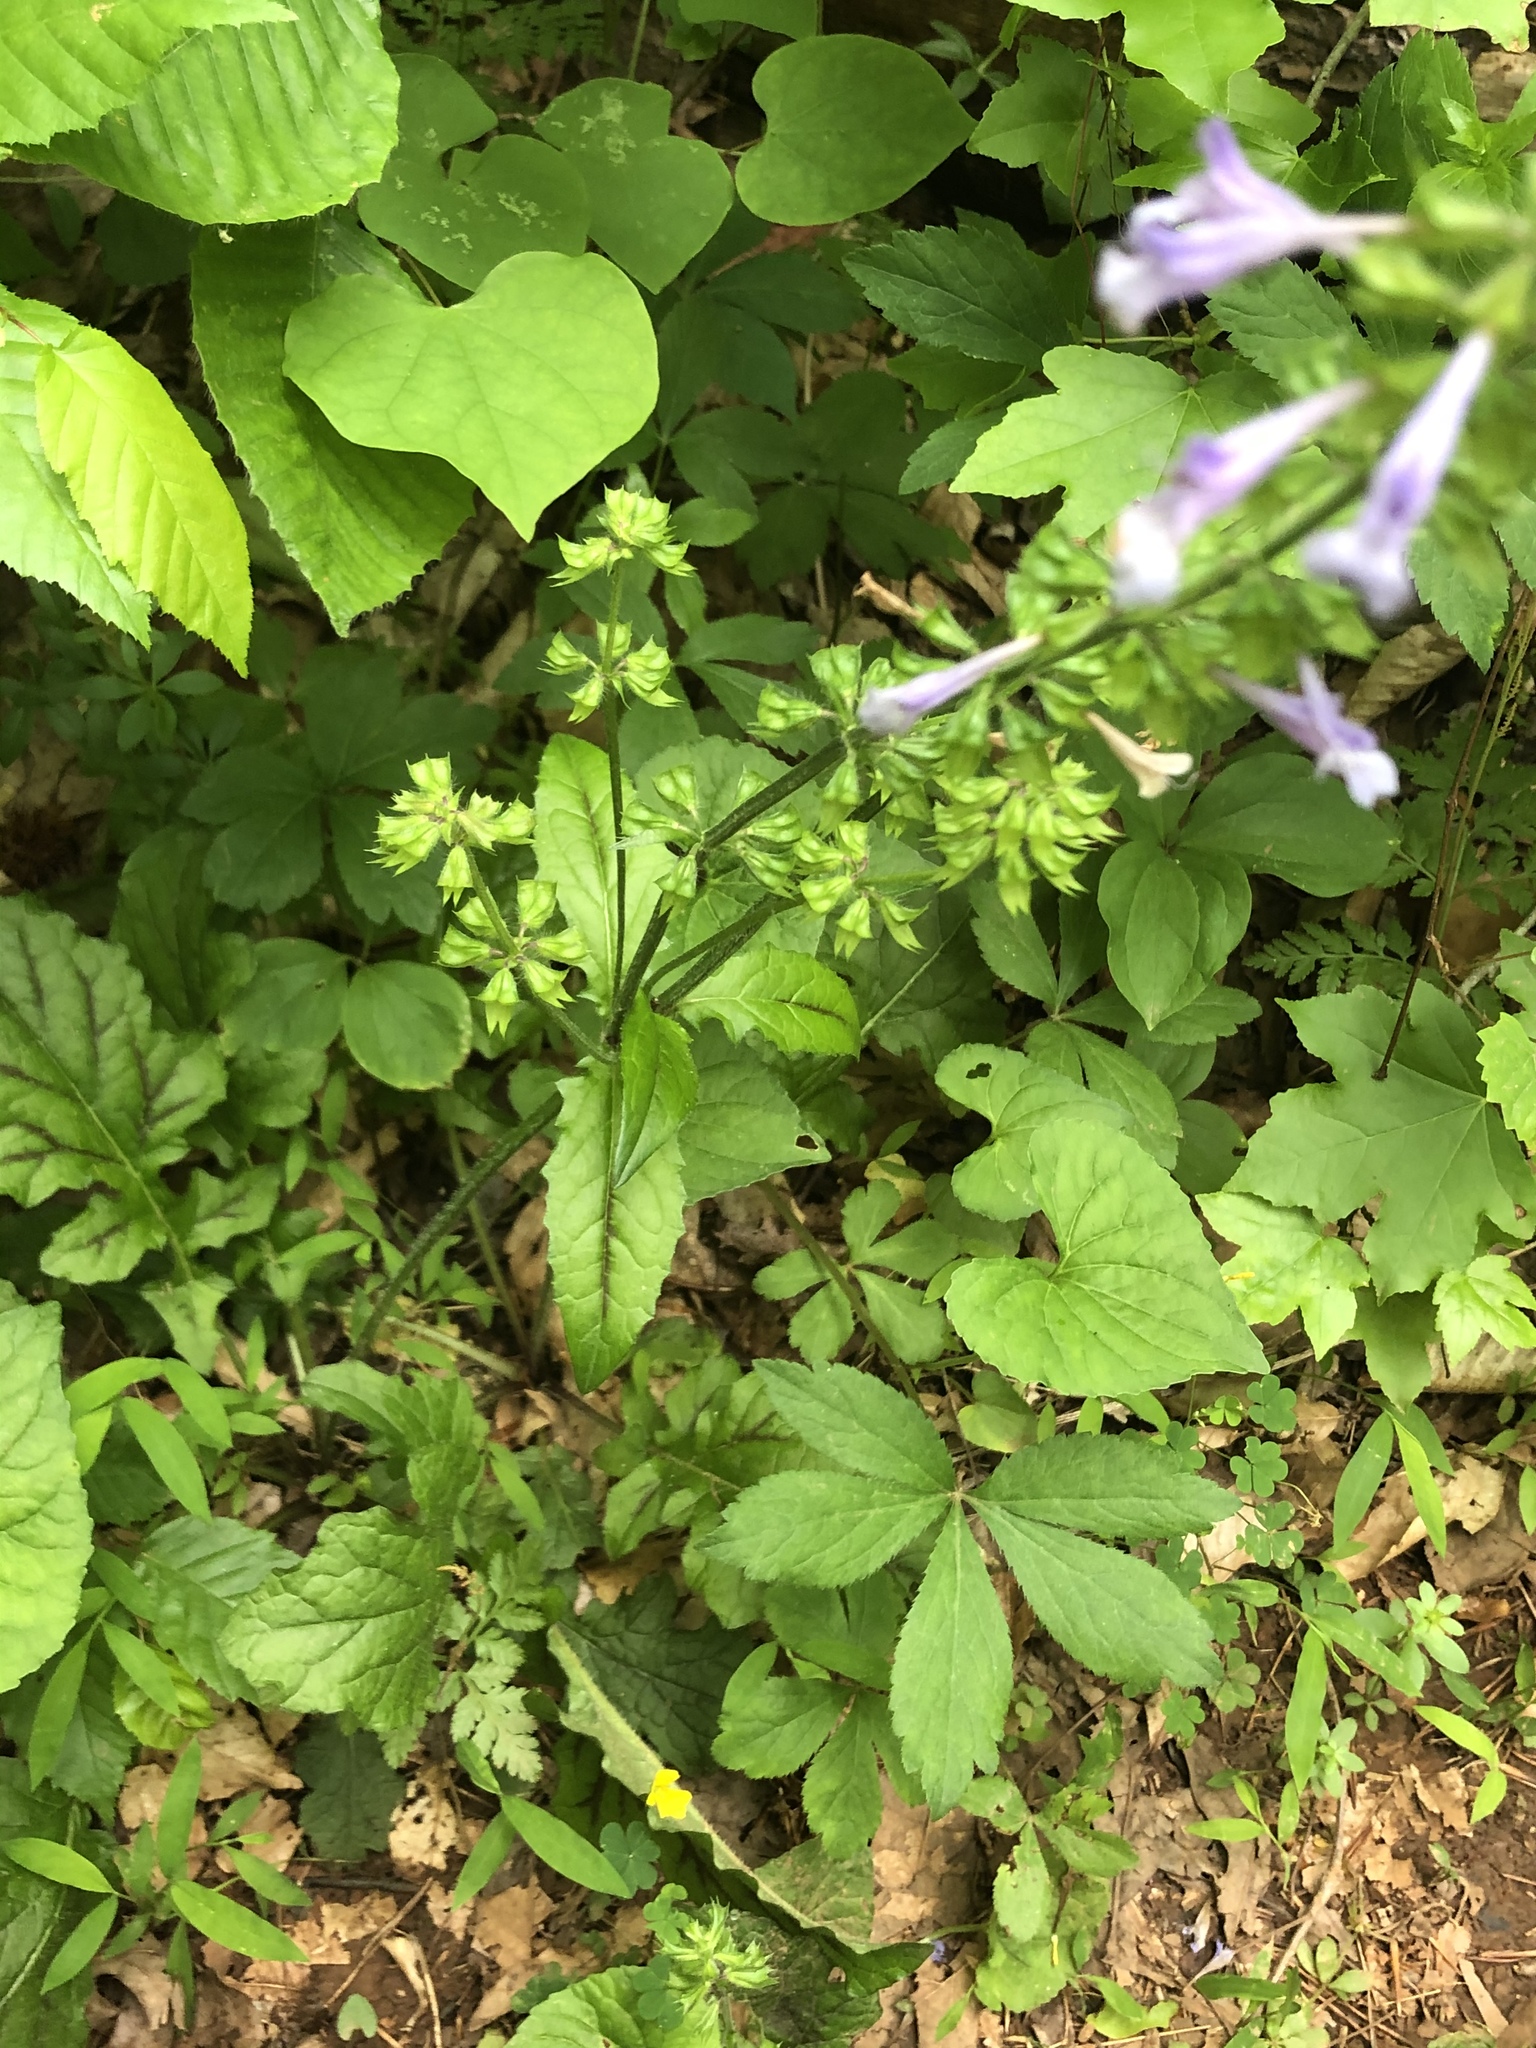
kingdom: Plantae
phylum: Tracheophyta
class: Magnoliopsida
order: Lamiales
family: Lamiaceae
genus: Salvia
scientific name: Salvia lyrata
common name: Cancerweed
